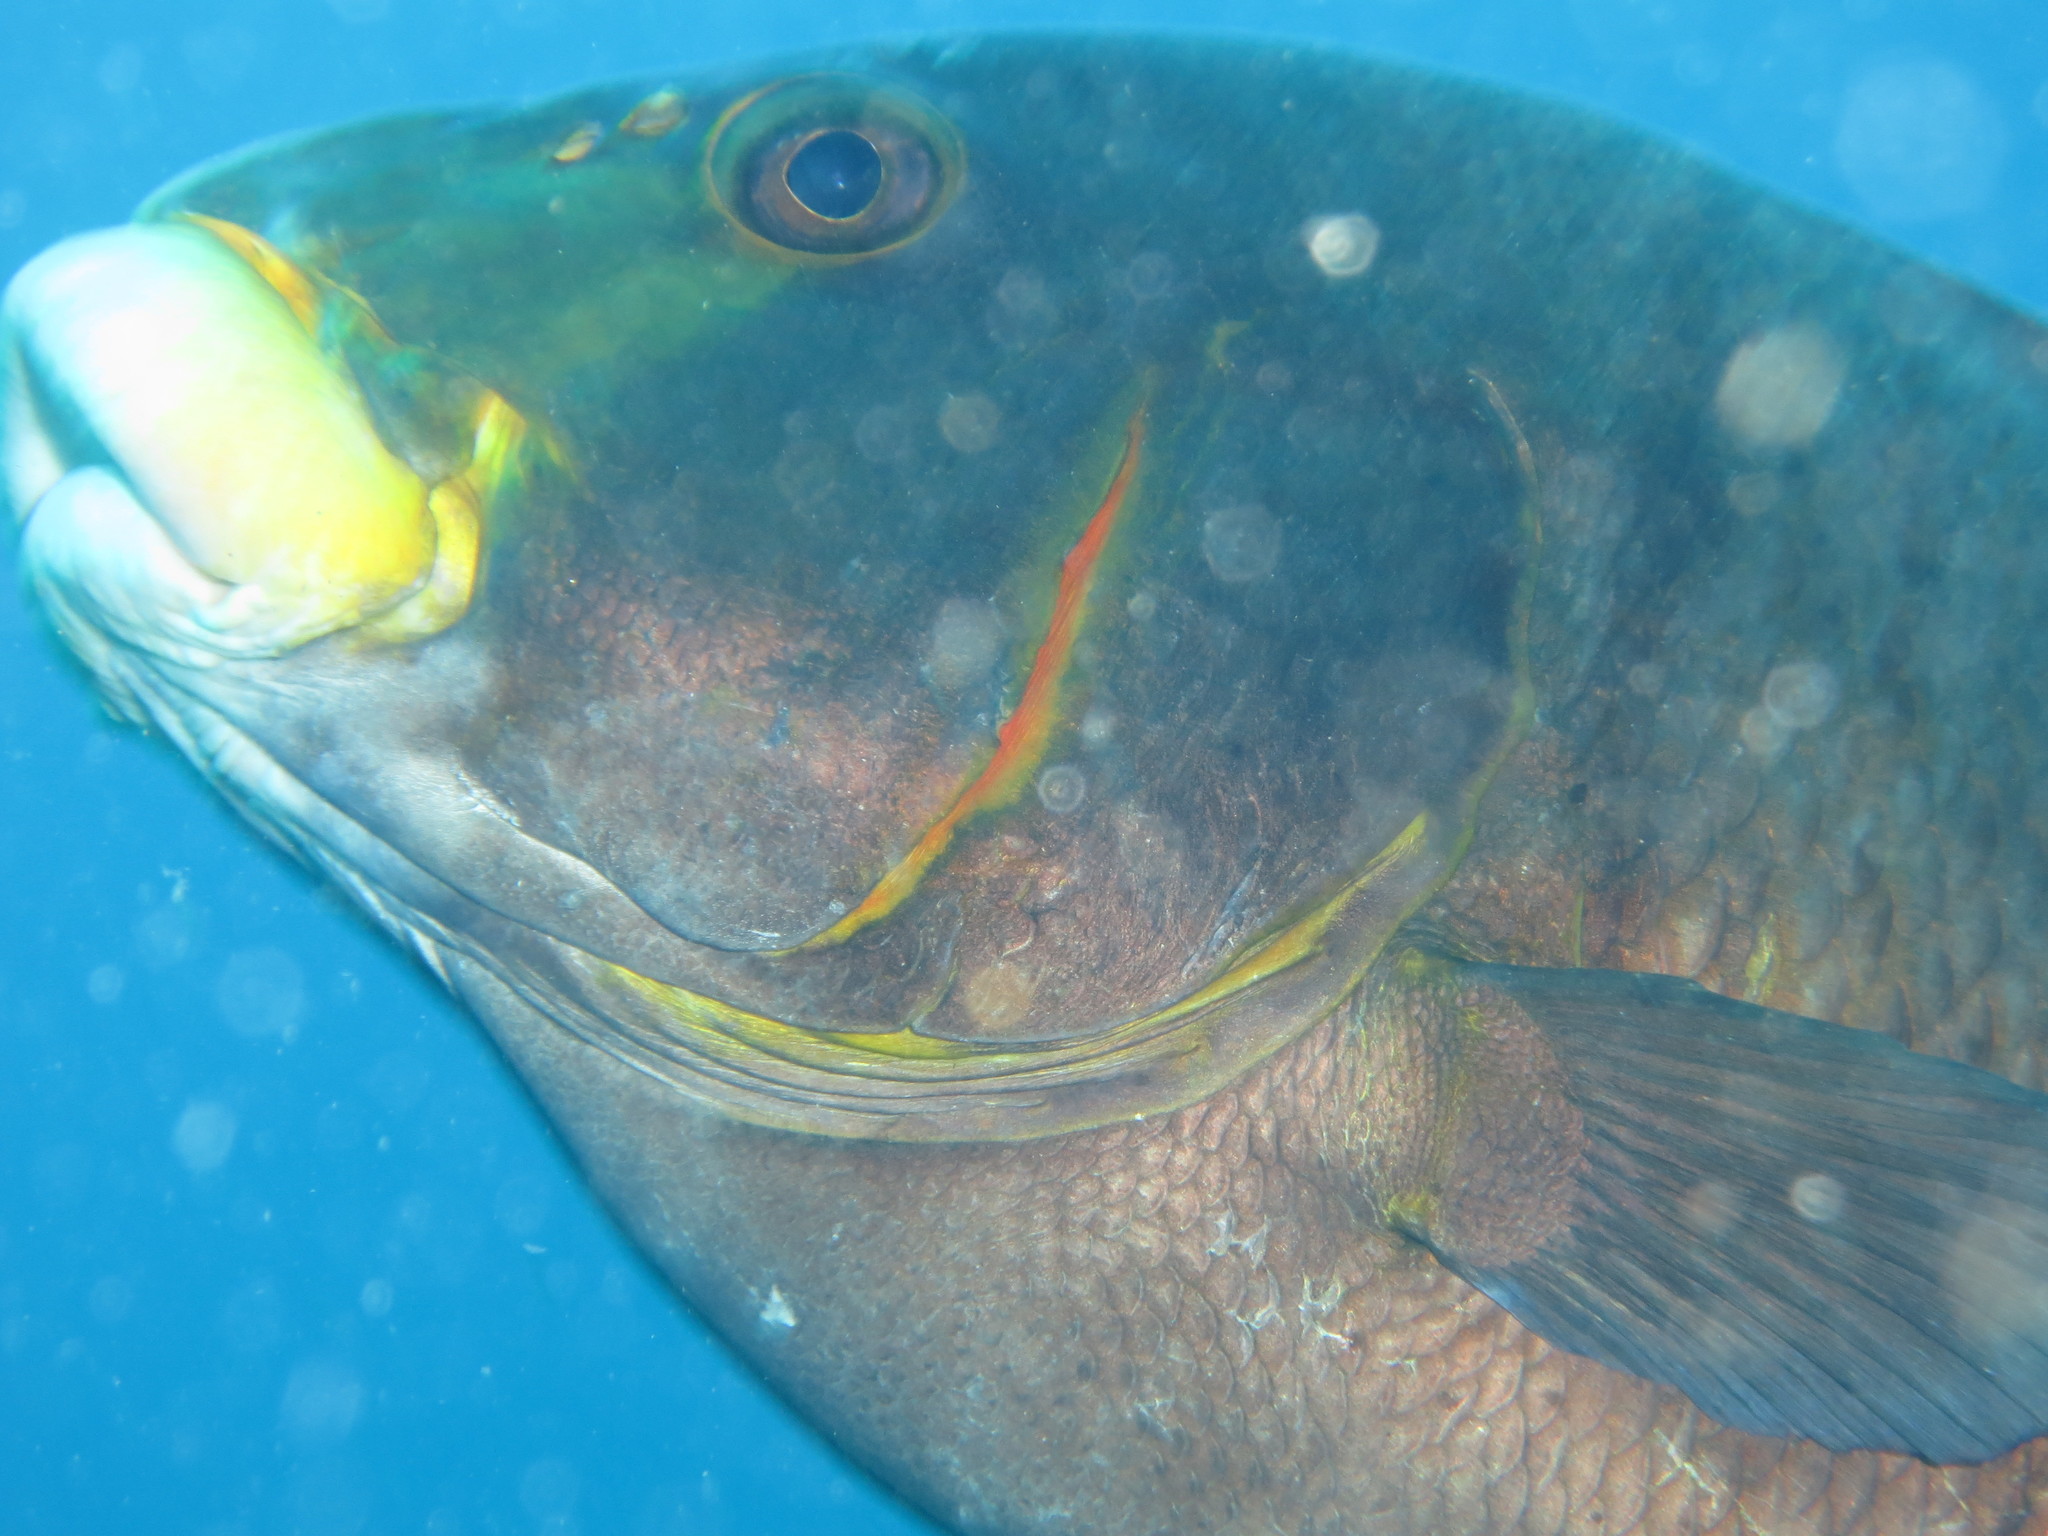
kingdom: Animalia
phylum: Chordata
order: Perciformes
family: Haemulidae
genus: Plectorhinchus
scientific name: Plectorhinchus plagiodesmus
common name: Barred rubberlip
